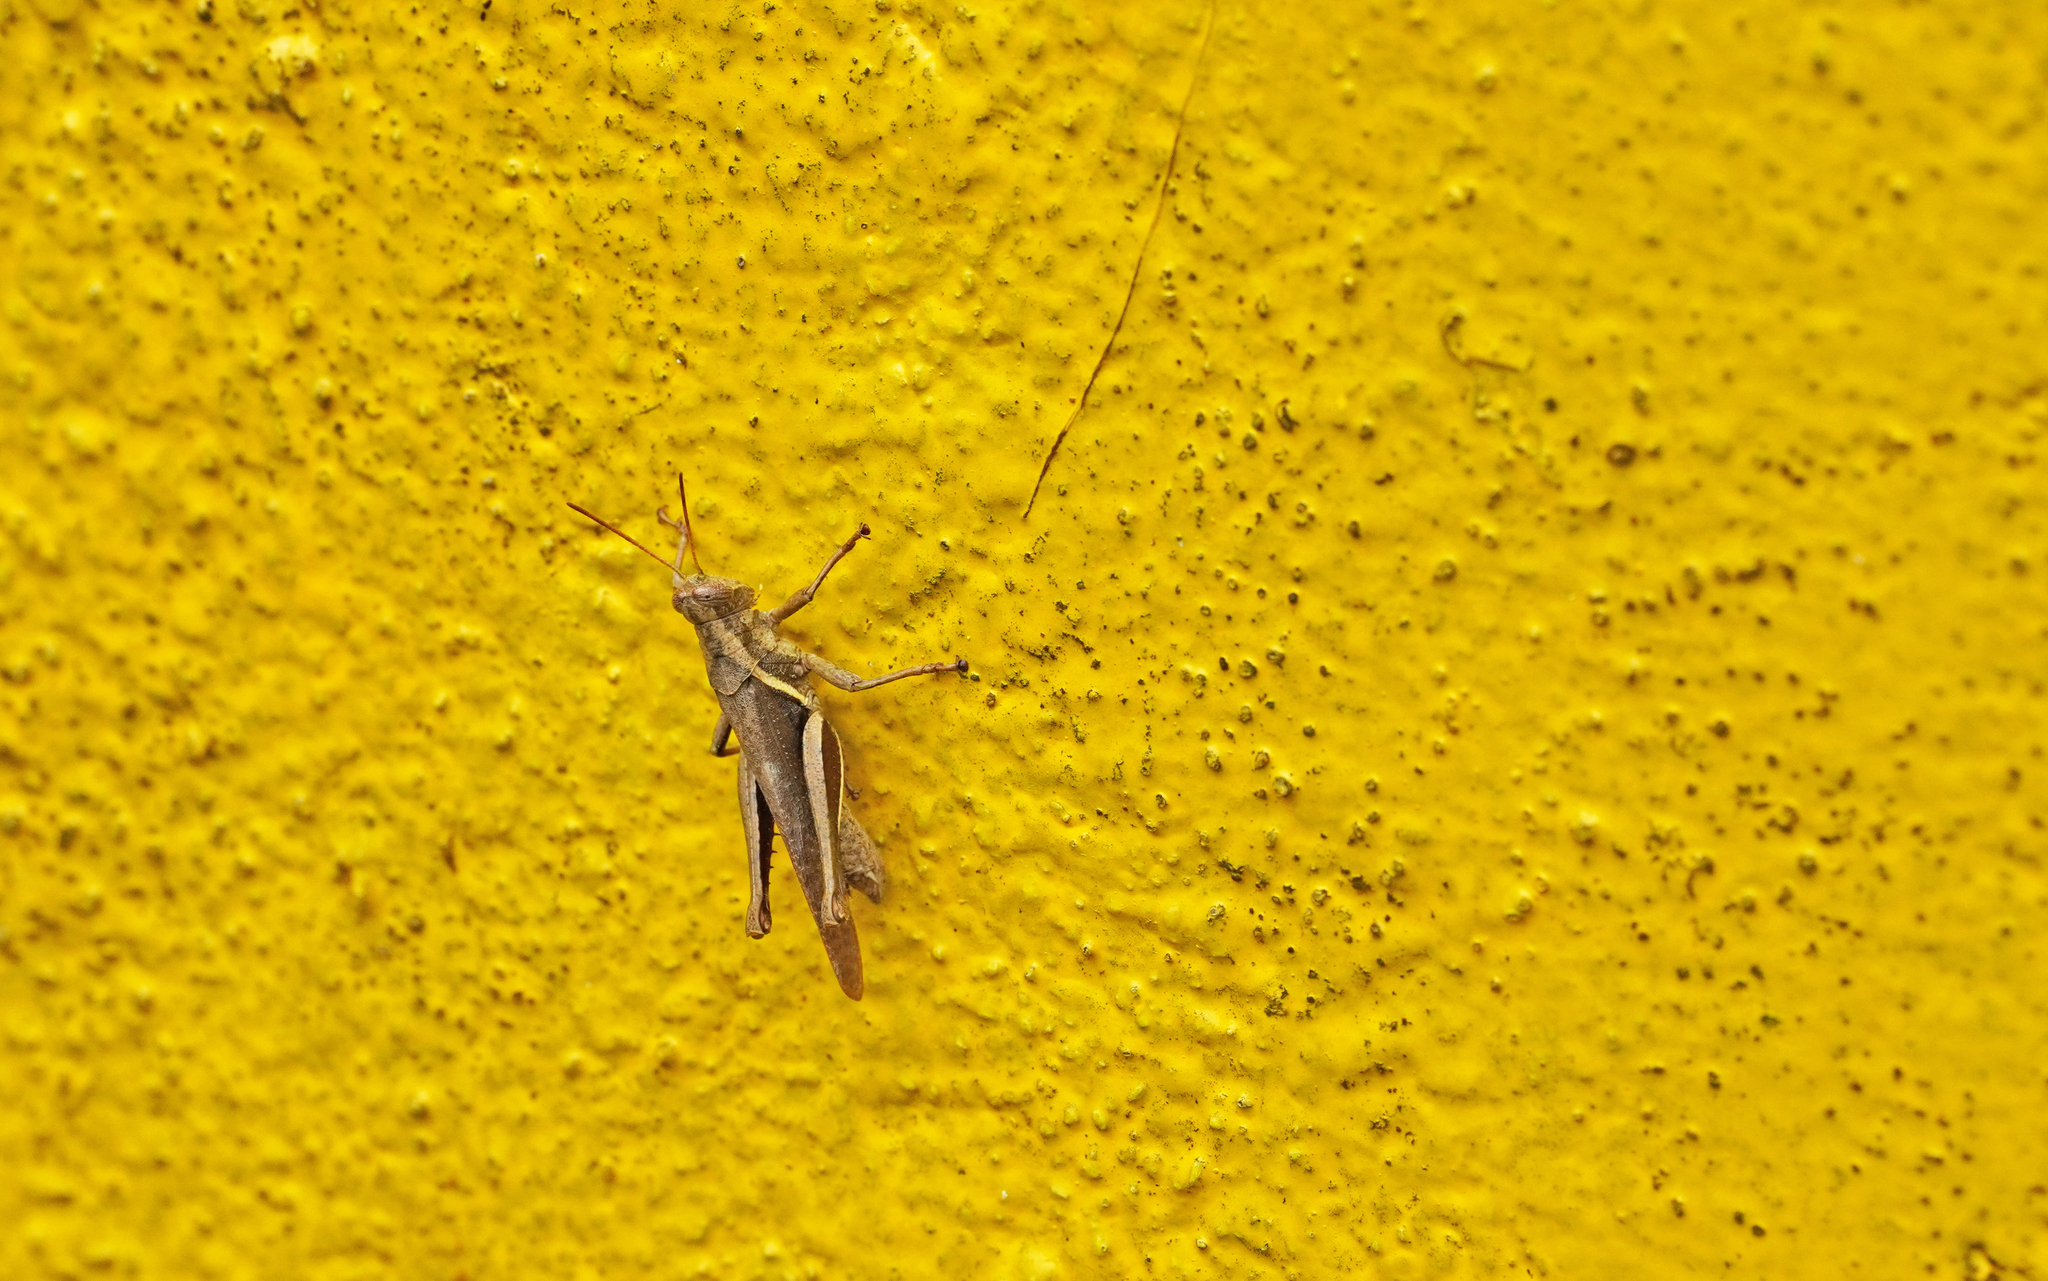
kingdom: Animalia
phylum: Arthropoda
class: Insecta
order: Orthoptera
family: Acrididae
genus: Abracris
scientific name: Abracris flavolineata
